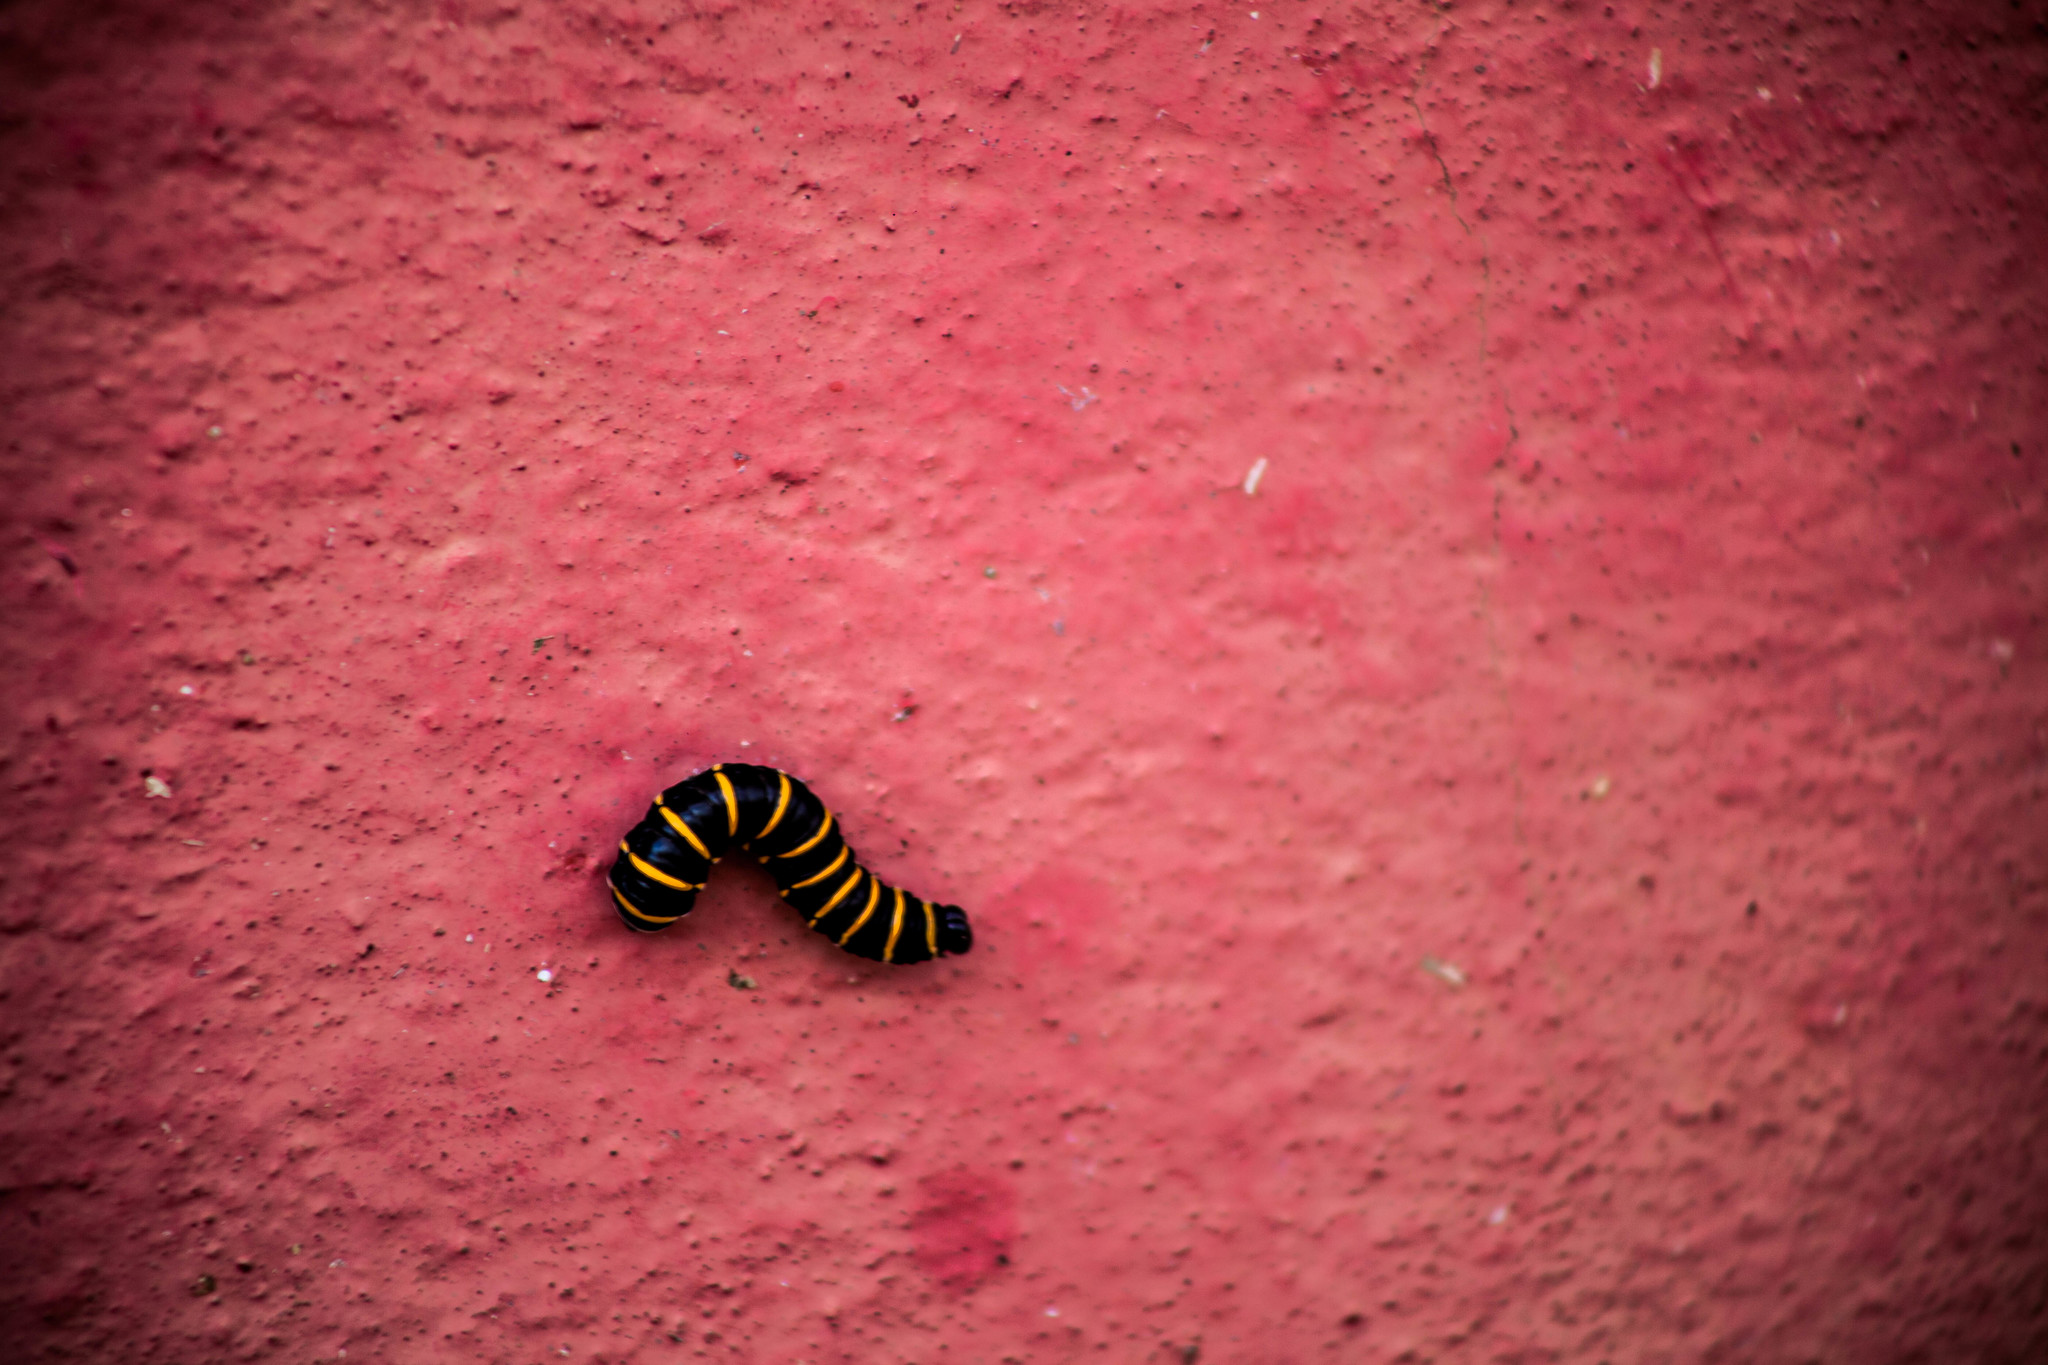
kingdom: Animalia
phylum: Arthropoda
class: Insecta
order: Lepidoptera
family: Nymphalidae
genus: Methona
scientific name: Methona themisto
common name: Themisto amberwing
